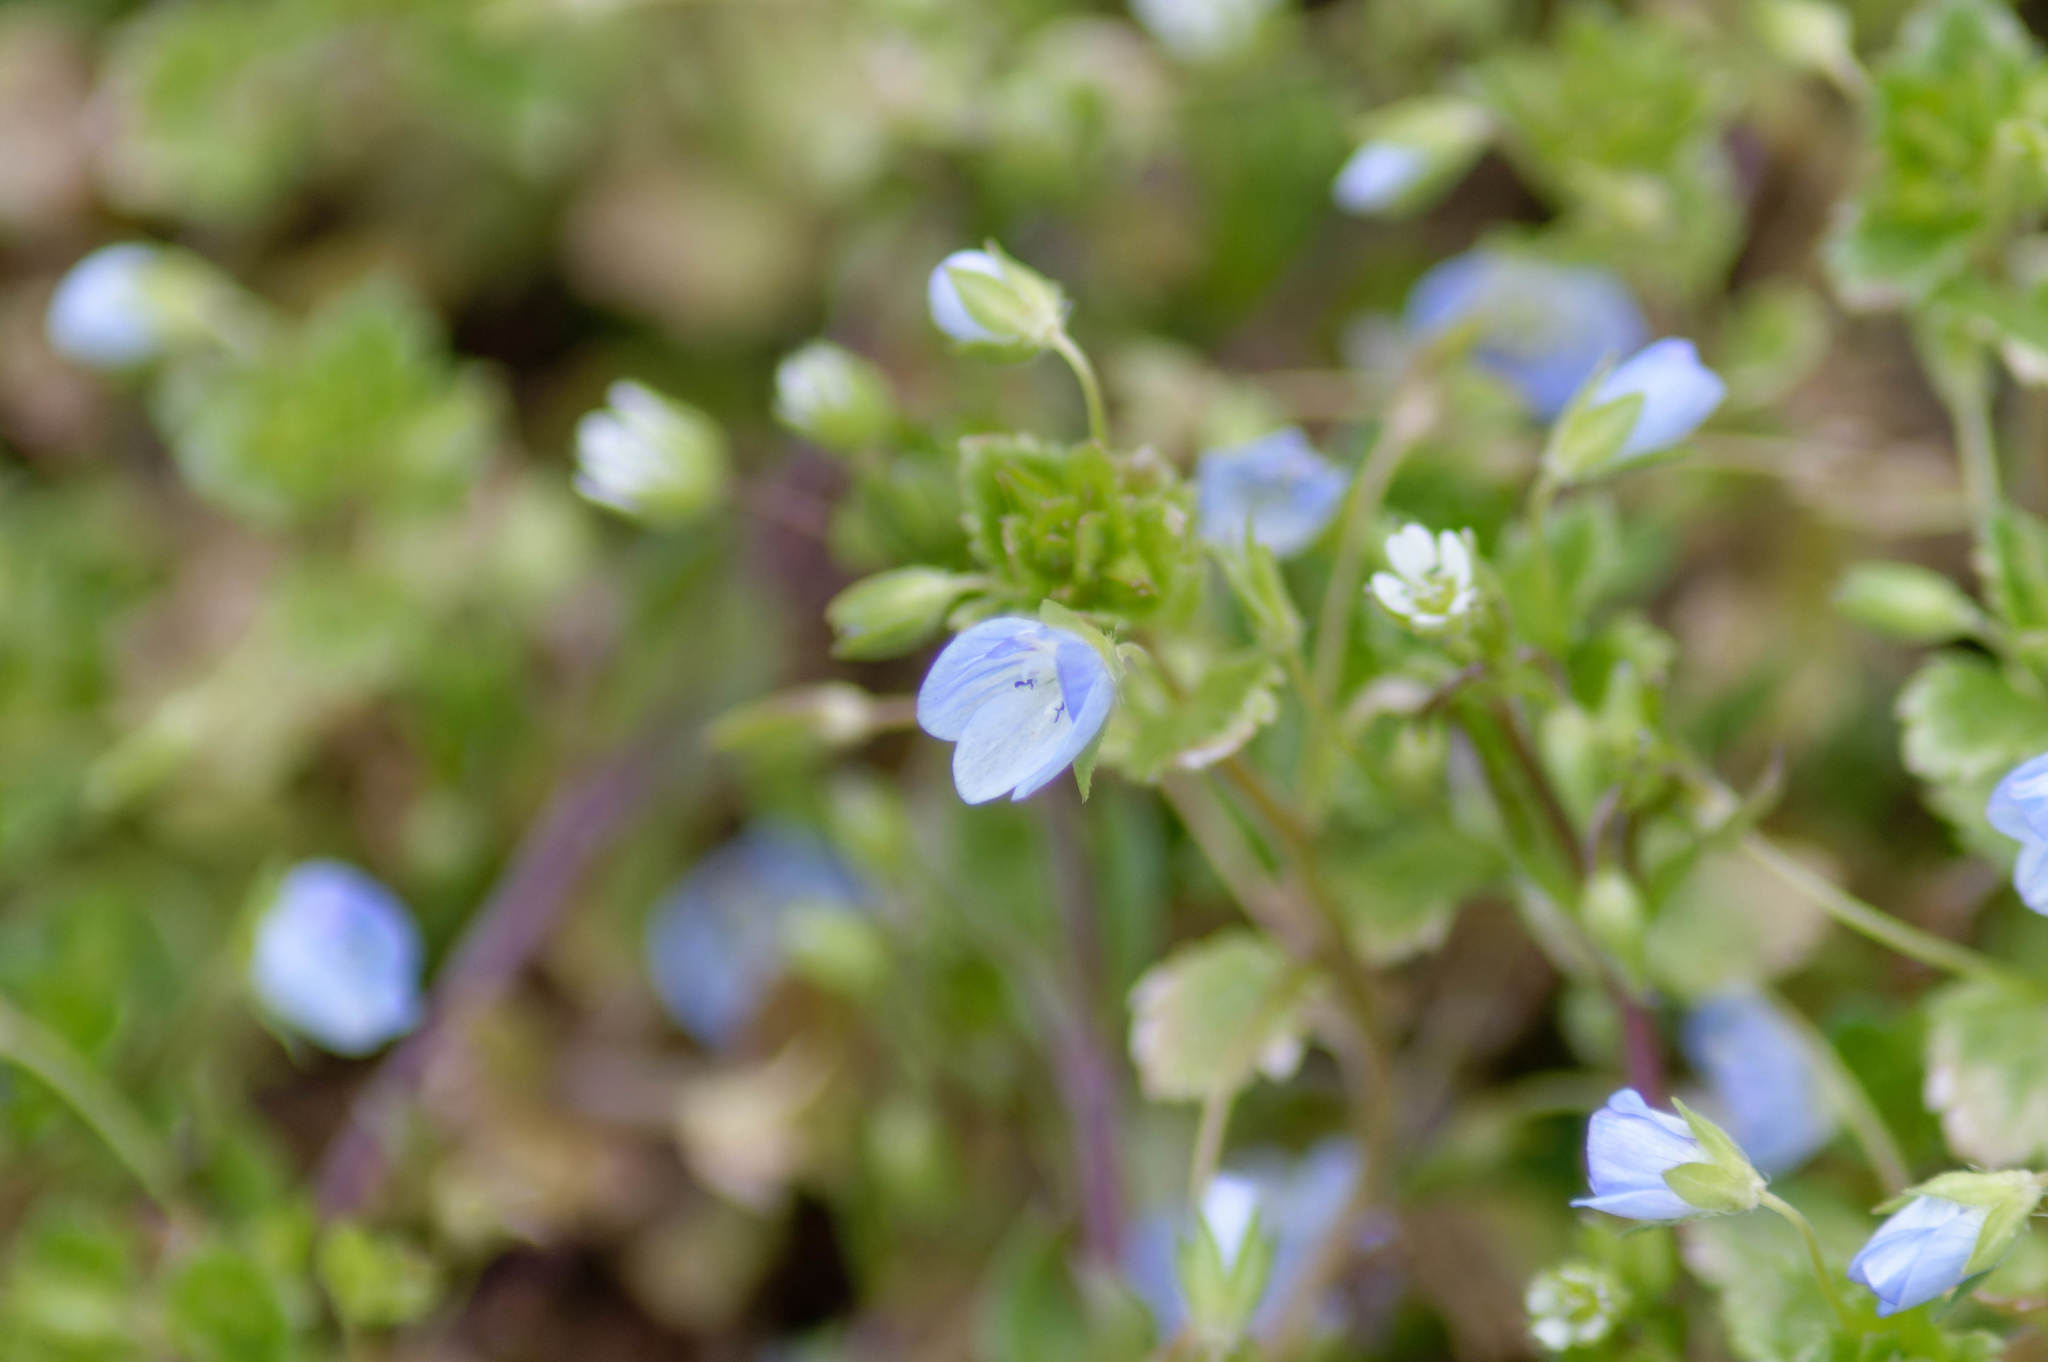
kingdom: Plantae
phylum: Tracheophyta
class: Magnoliopsida
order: Lamiales
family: Plantaginaceae
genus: Veronica
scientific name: Veronica persica
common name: Common field-speedwell
